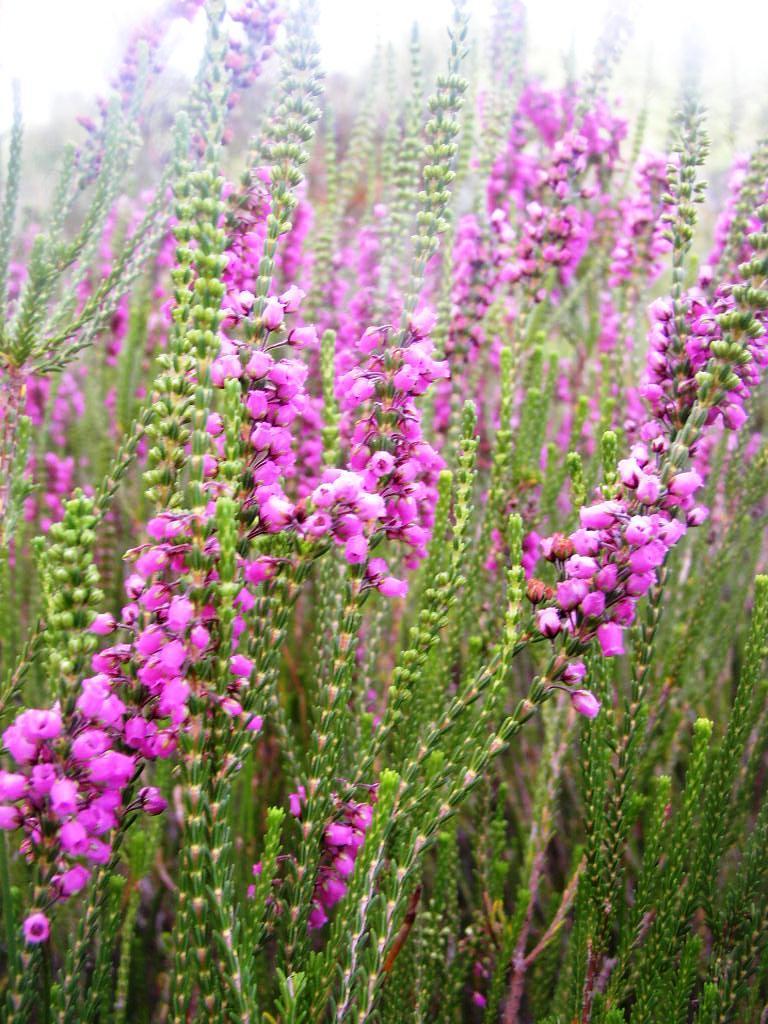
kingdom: Plantae
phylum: Tracheophyta
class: Magnoliopsida
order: Ericales
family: Ericaceae
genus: Erica
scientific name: Erica pulchella
